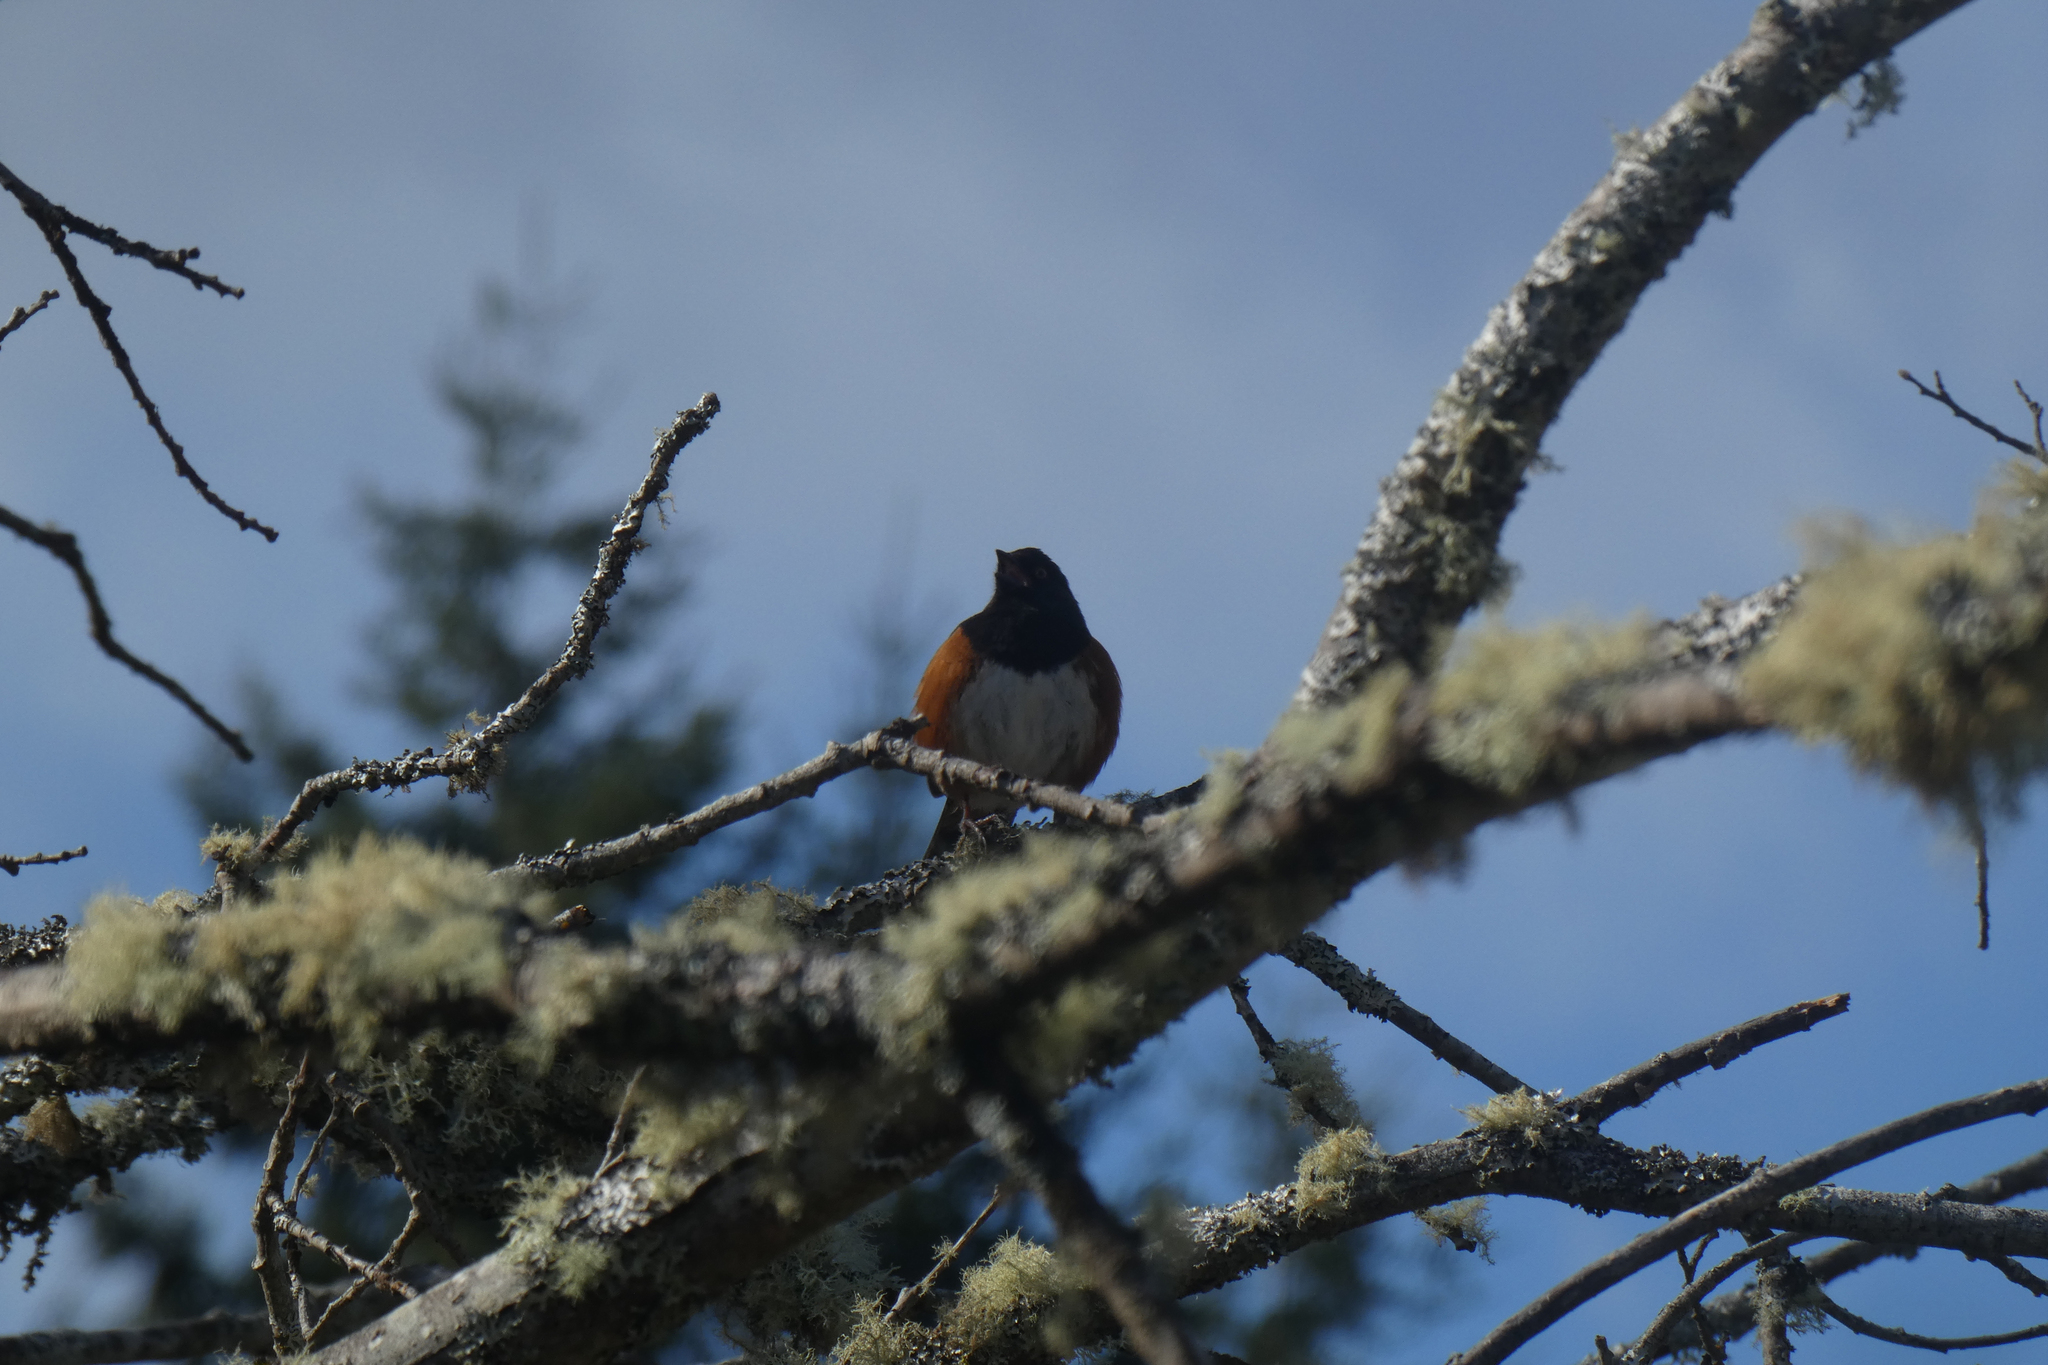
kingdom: Animalia
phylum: Chordata
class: Aves
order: Passeriformes
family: Passerellidae
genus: Pipilo
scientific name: Pipilo maculatus
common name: Spotted towhee
